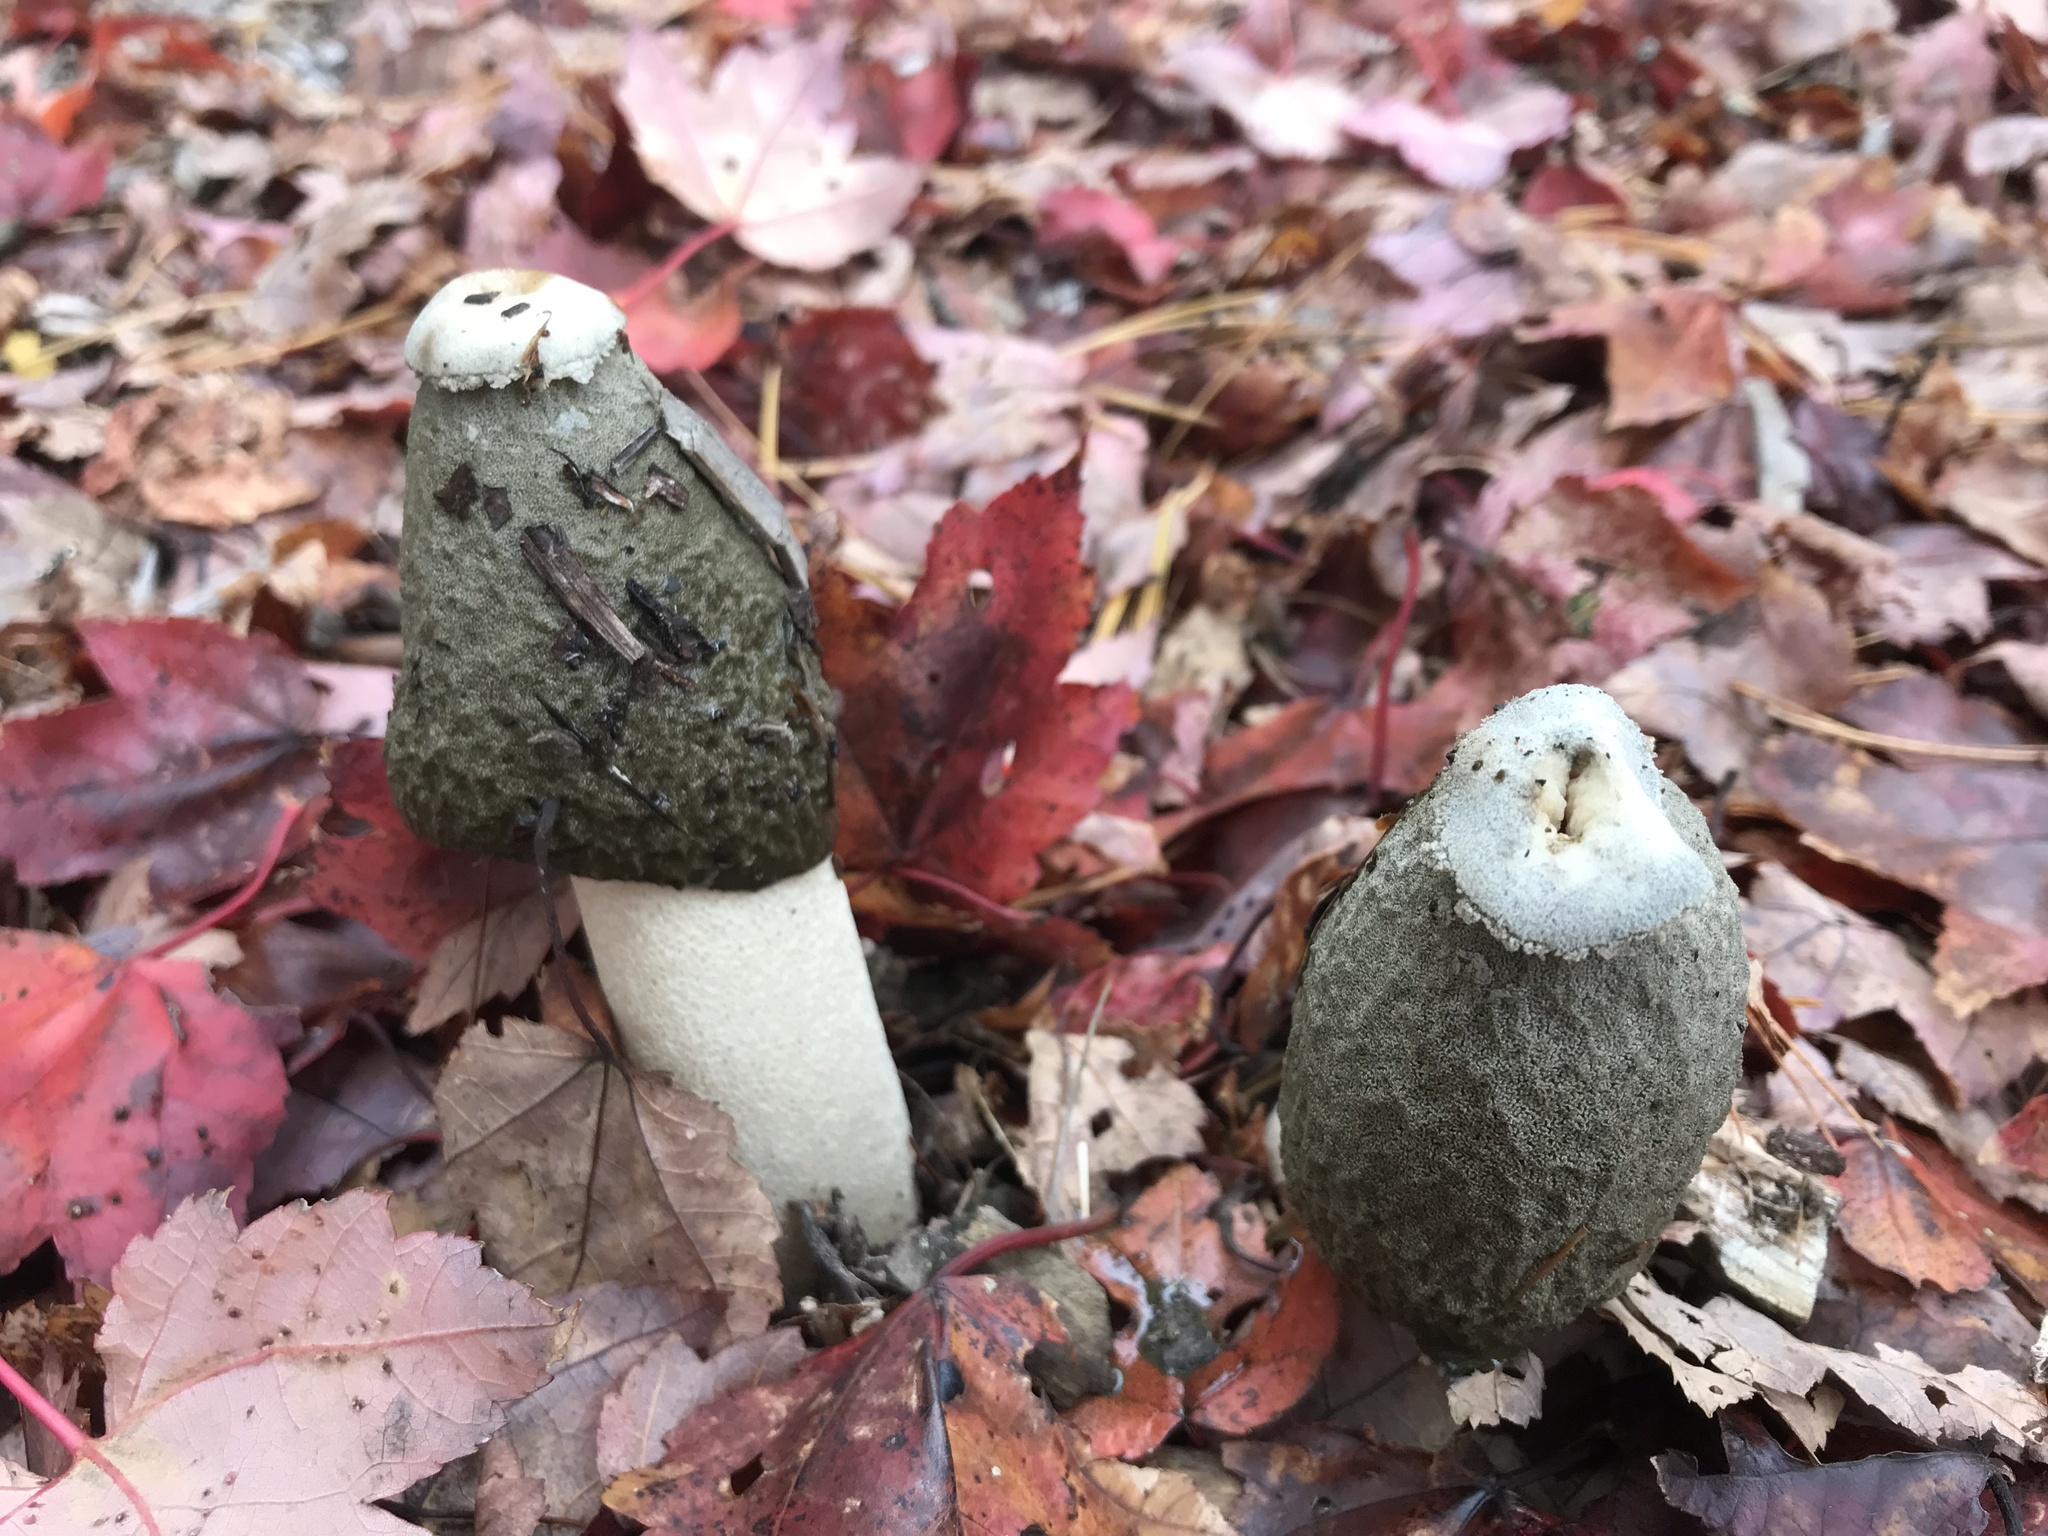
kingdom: Fungi
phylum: Basidiomycota
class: Agaricomycetes
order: Phallales
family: Phallaceae
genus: Phallus
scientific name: Phallus ravenelii
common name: Ravenel's stinkhorn
